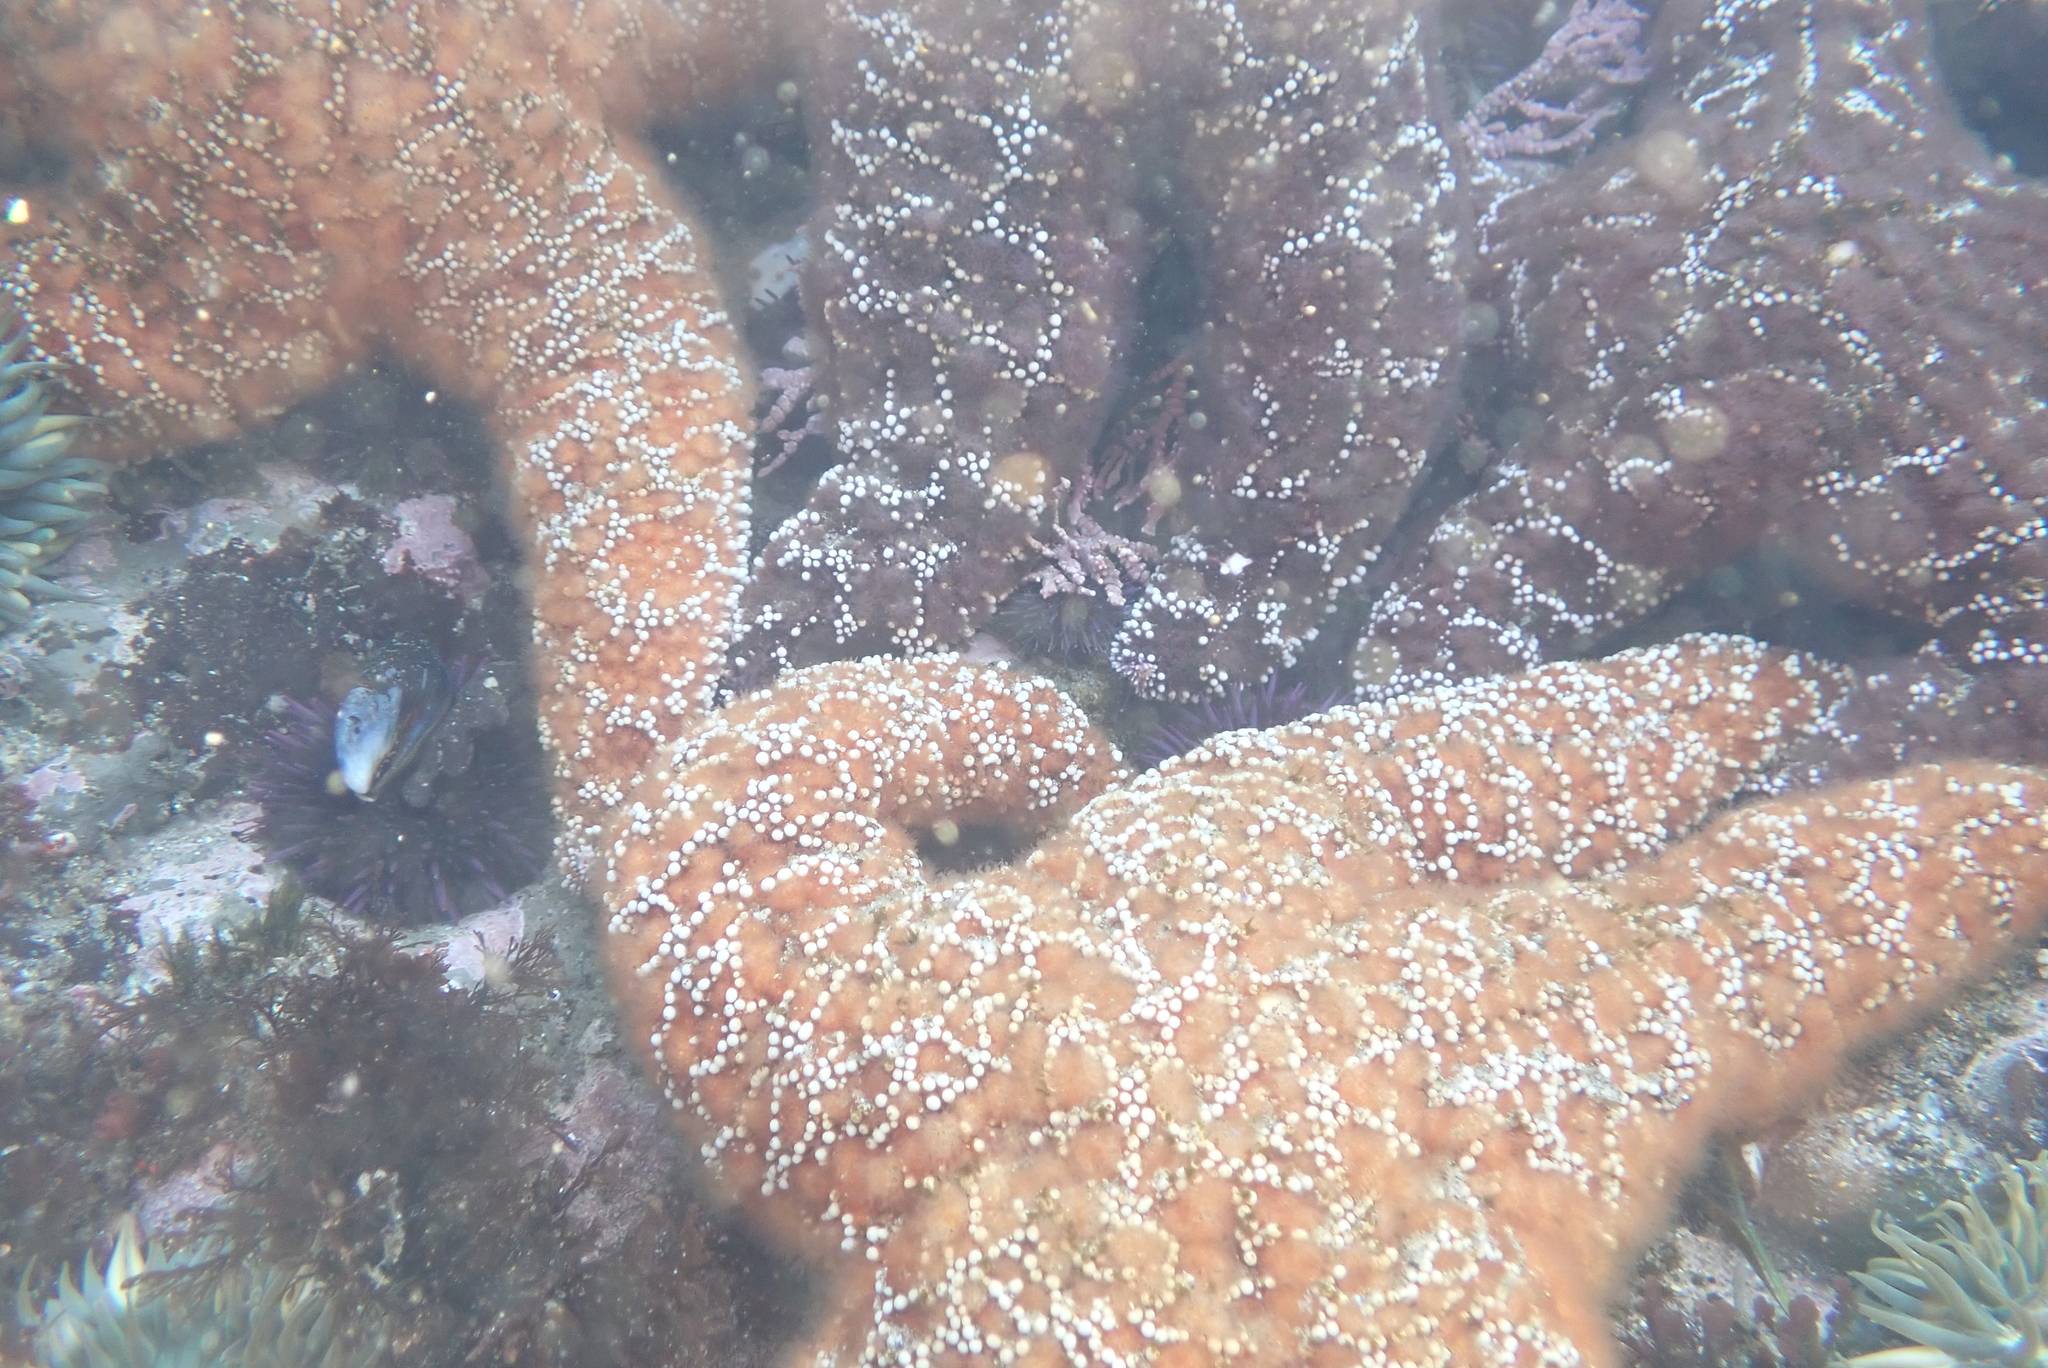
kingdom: Animalia
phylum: Echinodermata
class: Asteroidea
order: Forcipulatida
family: Asteriidae
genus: Pisaster
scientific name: Pisaster ochraceus
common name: Ochre stars
